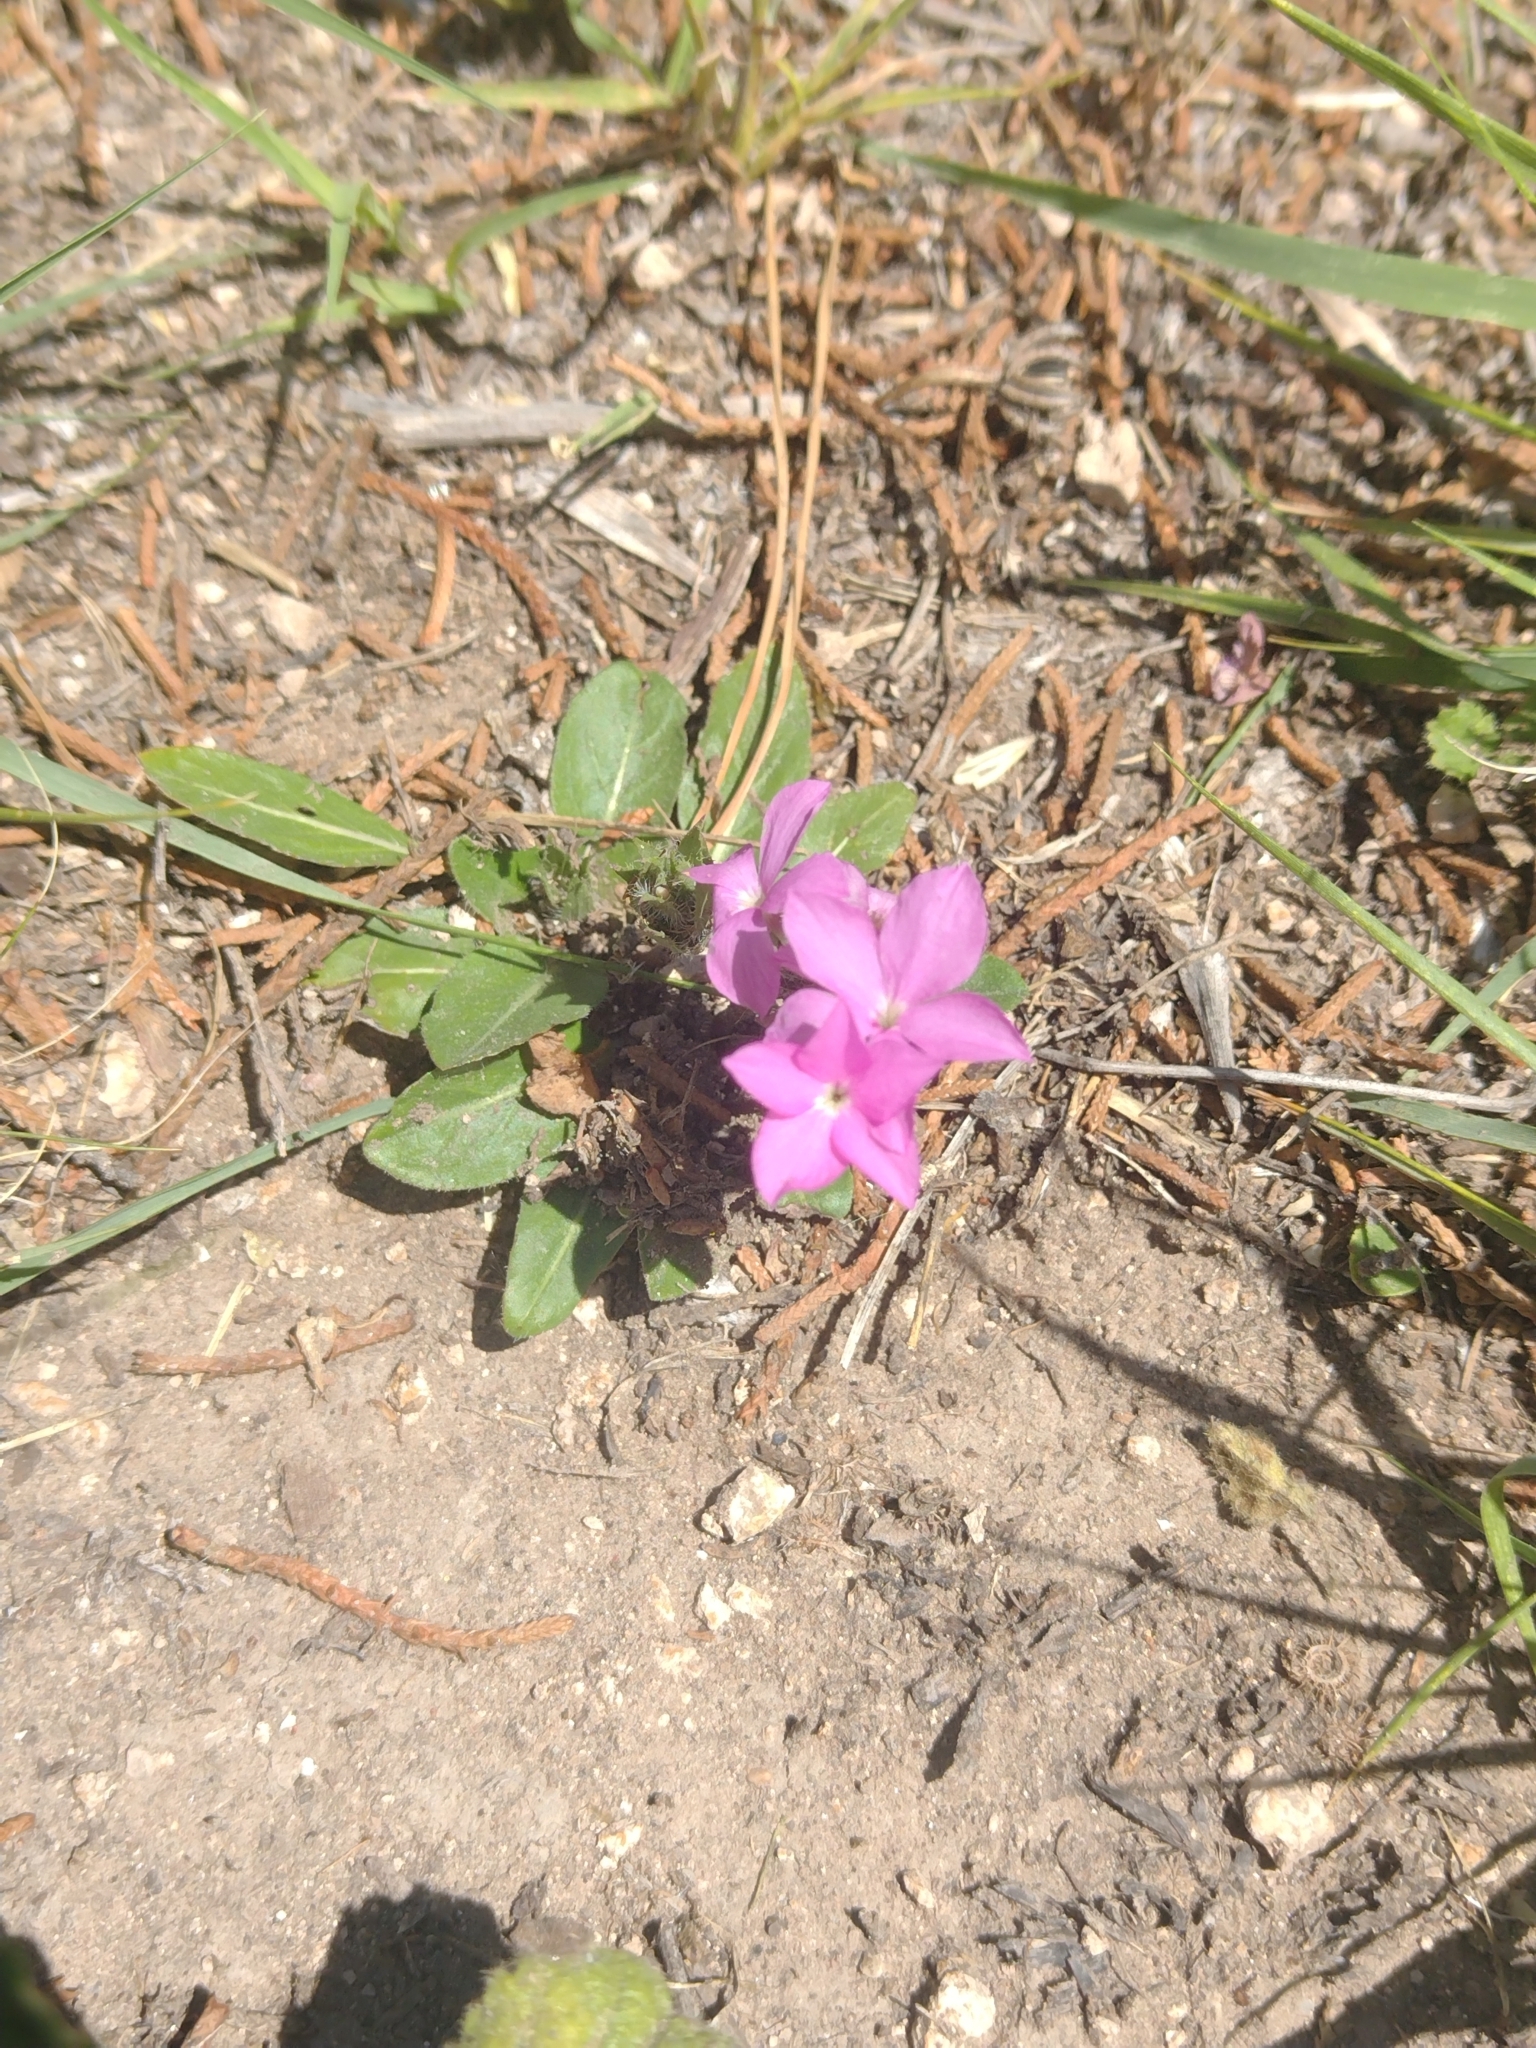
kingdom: Plantae
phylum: Tracheophyta
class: Magnoliopsida
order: Lamiales
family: Acanthaceae
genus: Stenandrium
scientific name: Stenandrium dulce
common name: Pinklet
